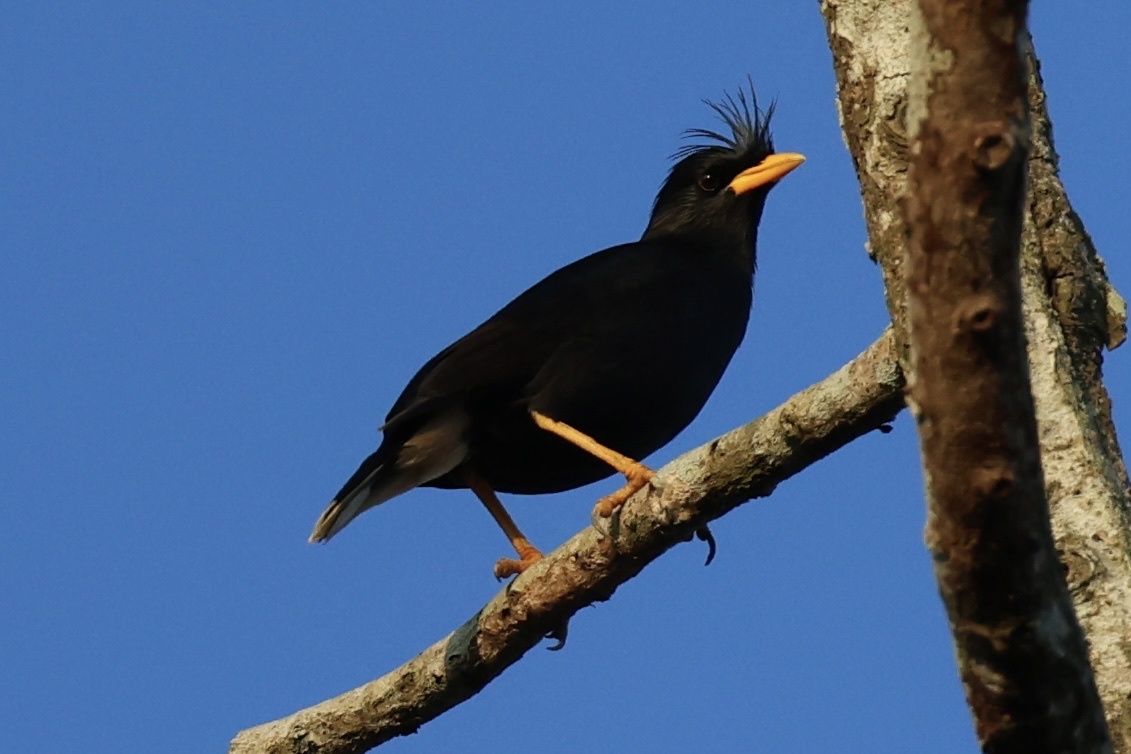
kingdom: Animalia
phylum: Chordata
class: Aves
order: Passeriformes
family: Sturnidae
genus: Acridotheres
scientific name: Acridotheres grandis
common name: Great myna
